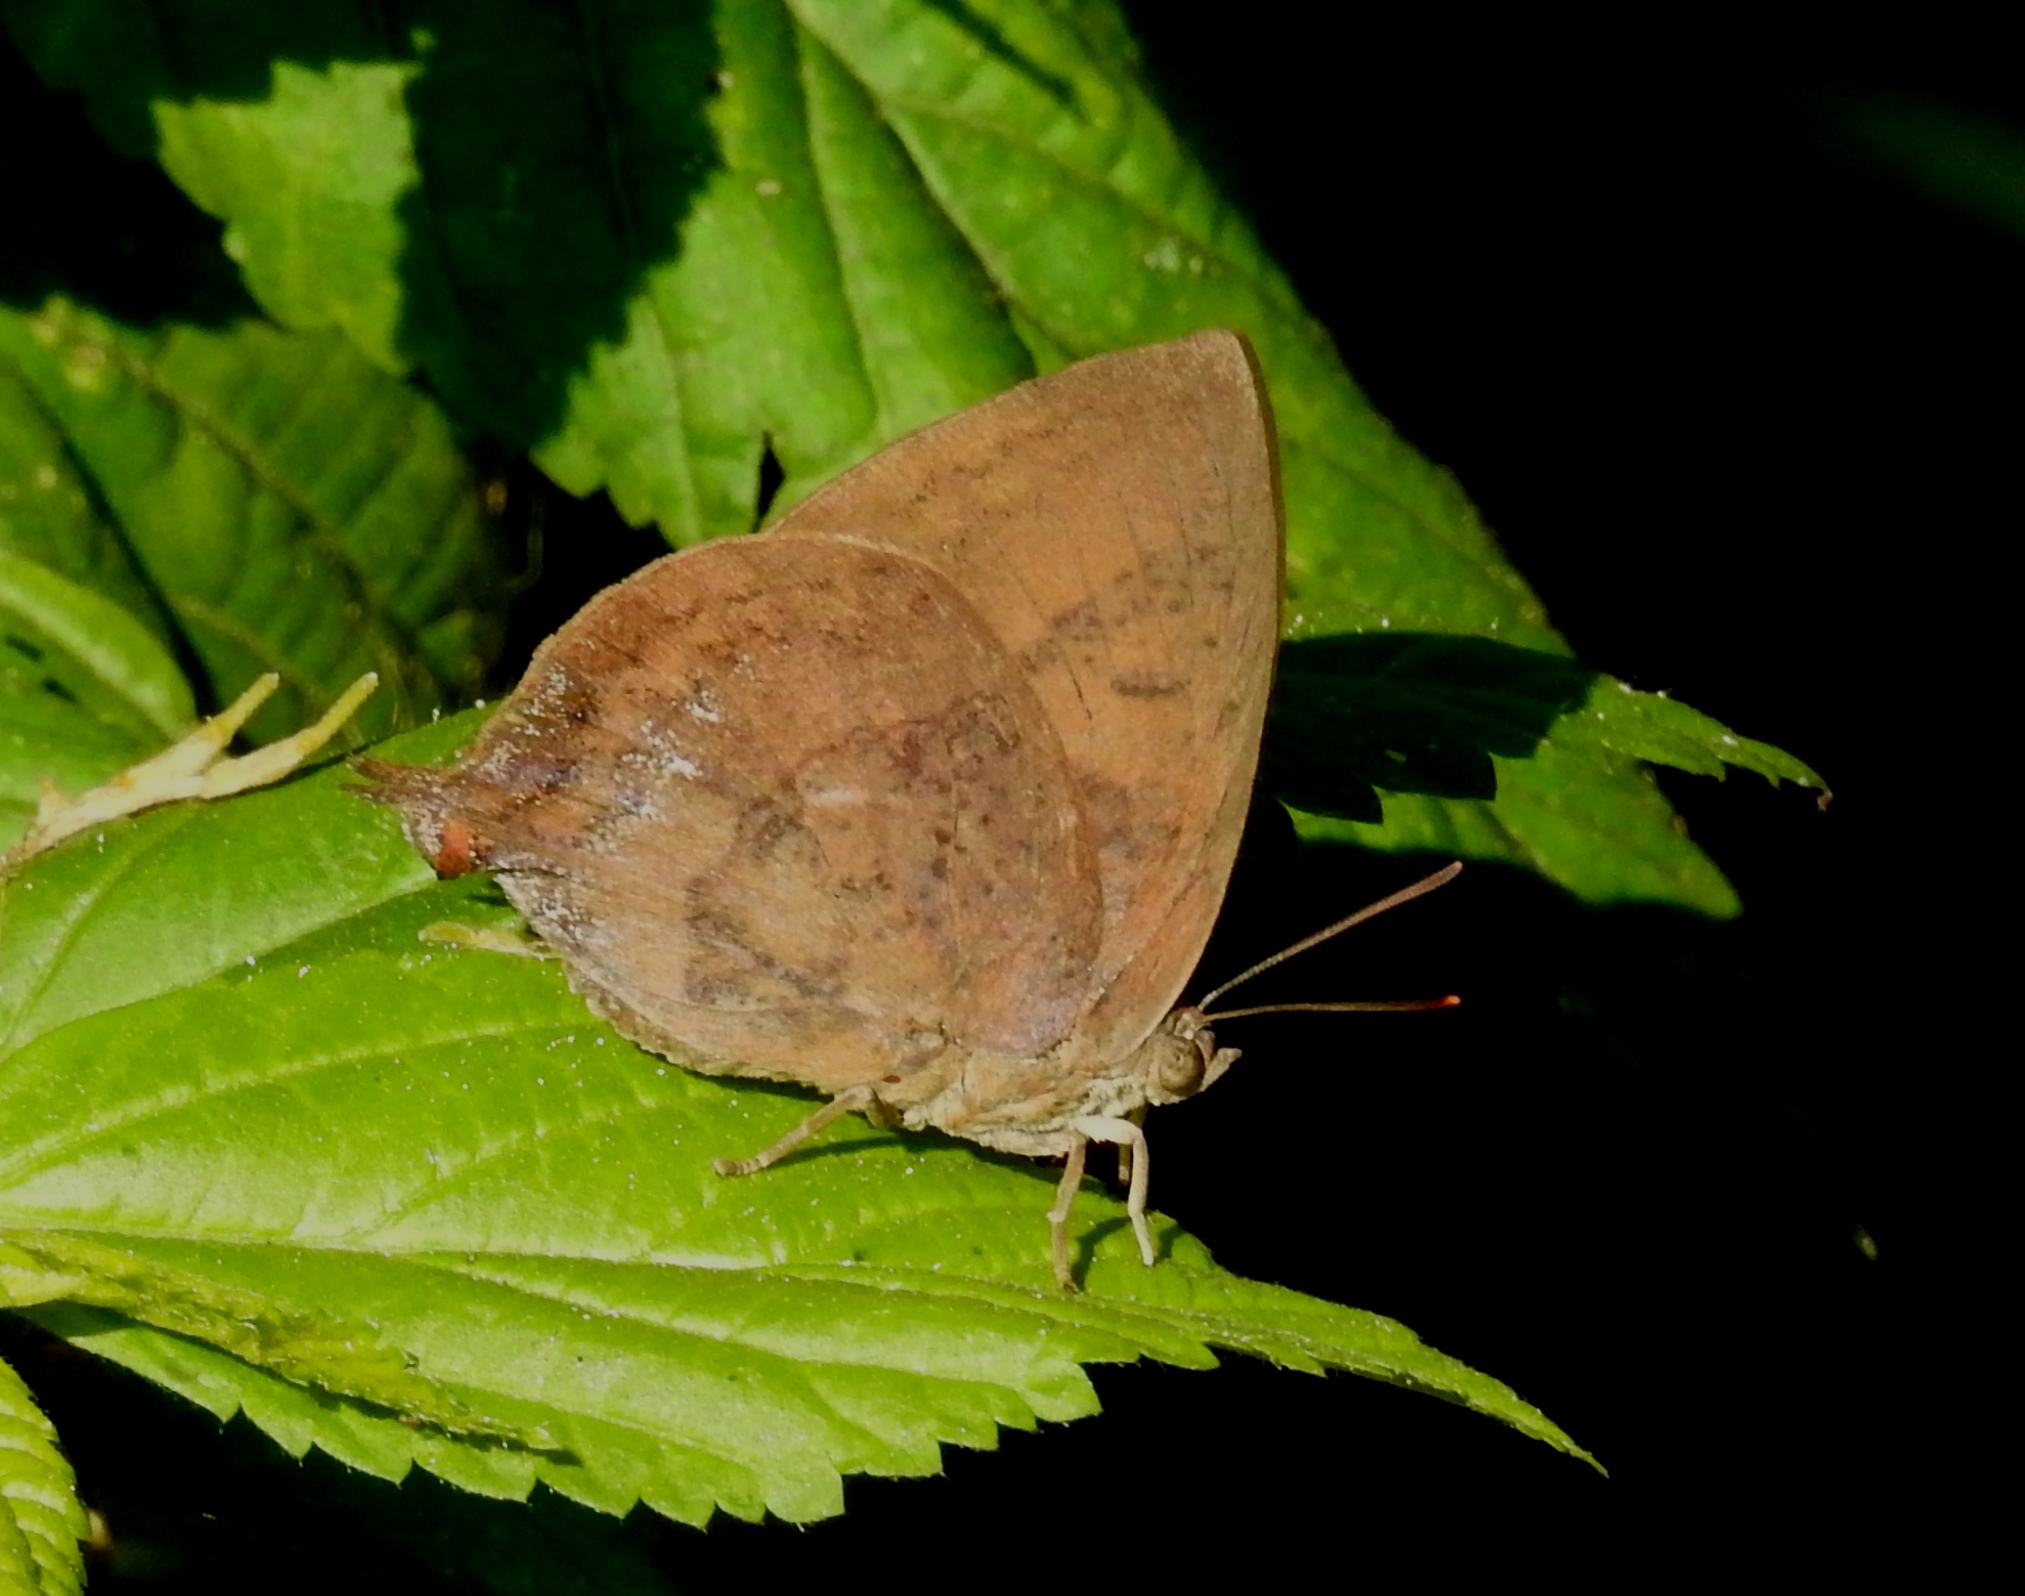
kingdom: Animalia
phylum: Arthropoda
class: Insecta
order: Lepidoptera
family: Lycaenidae
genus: Amblypodia
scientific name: Amblypodia anita
